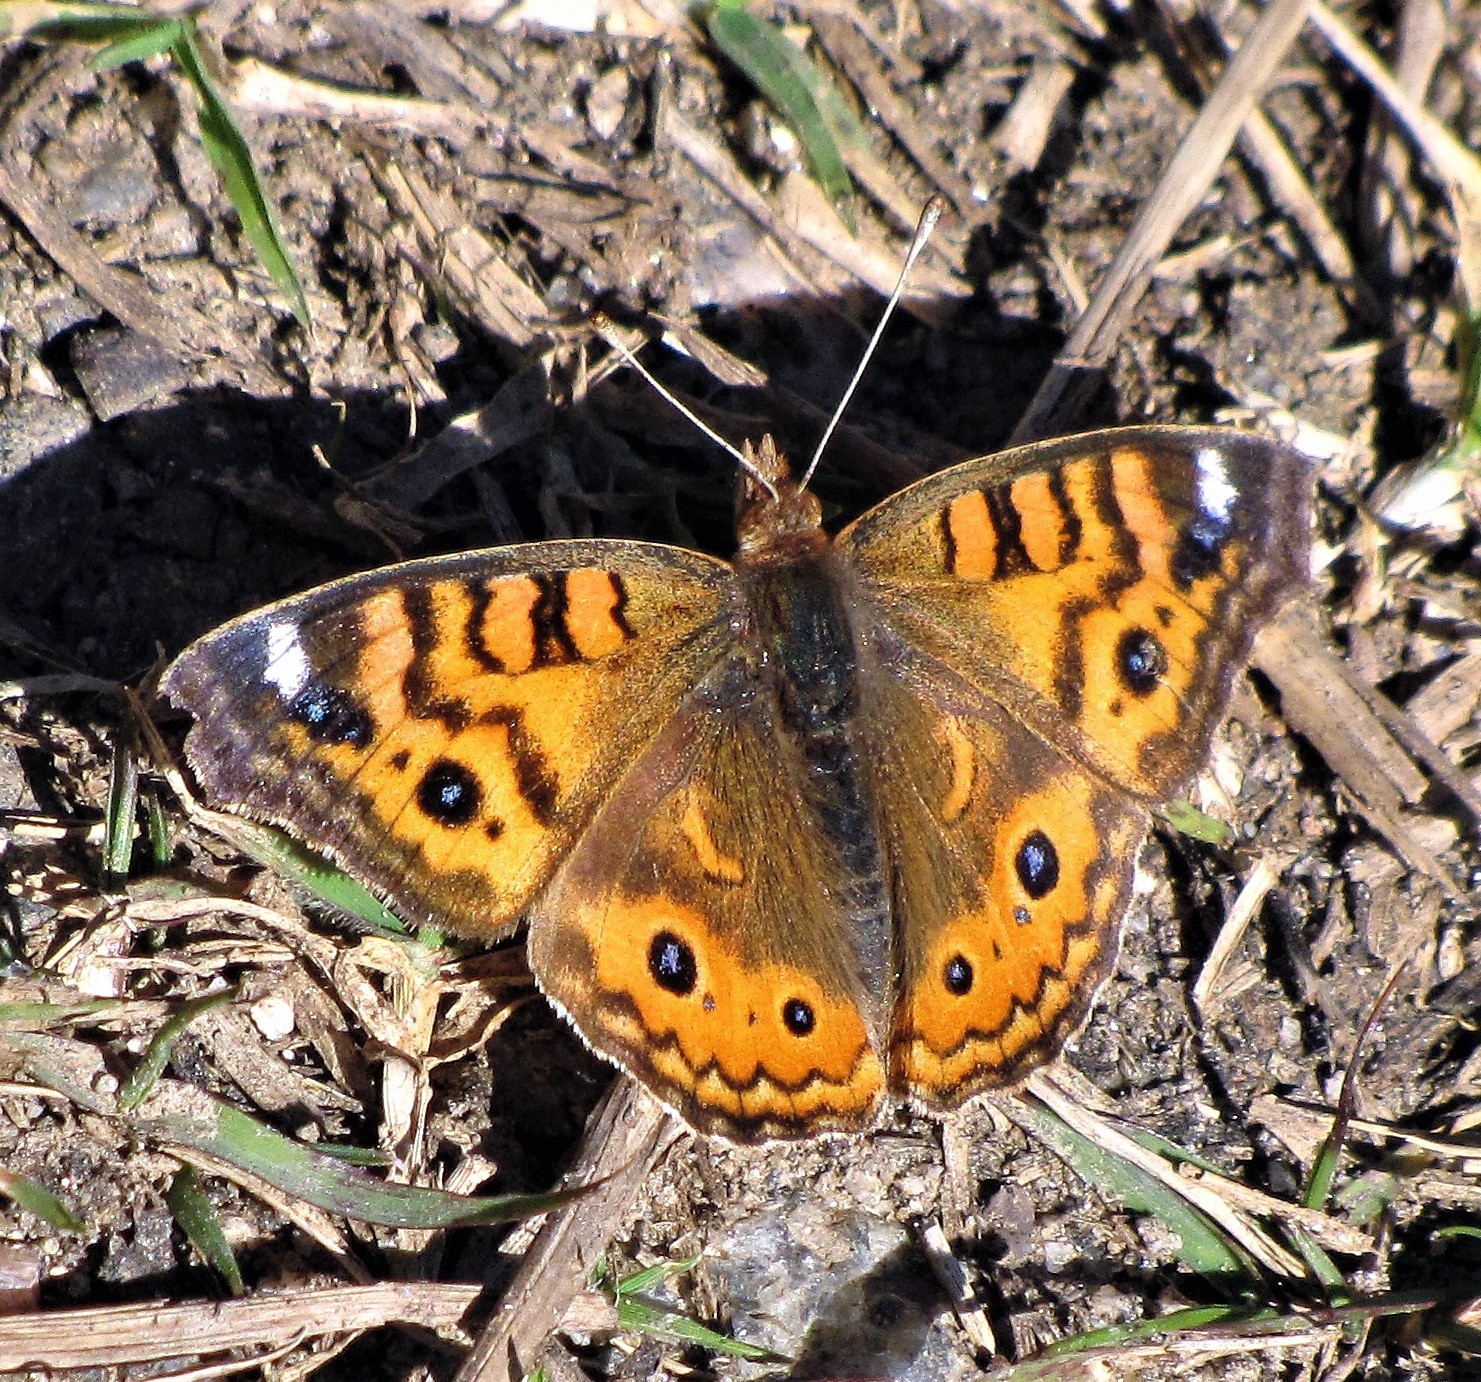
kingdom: Animalia
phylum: Arthropoda
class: Insecta
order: Lepidoptera
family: Nymphalidae
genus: Junonia
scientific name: Junonia vestina
